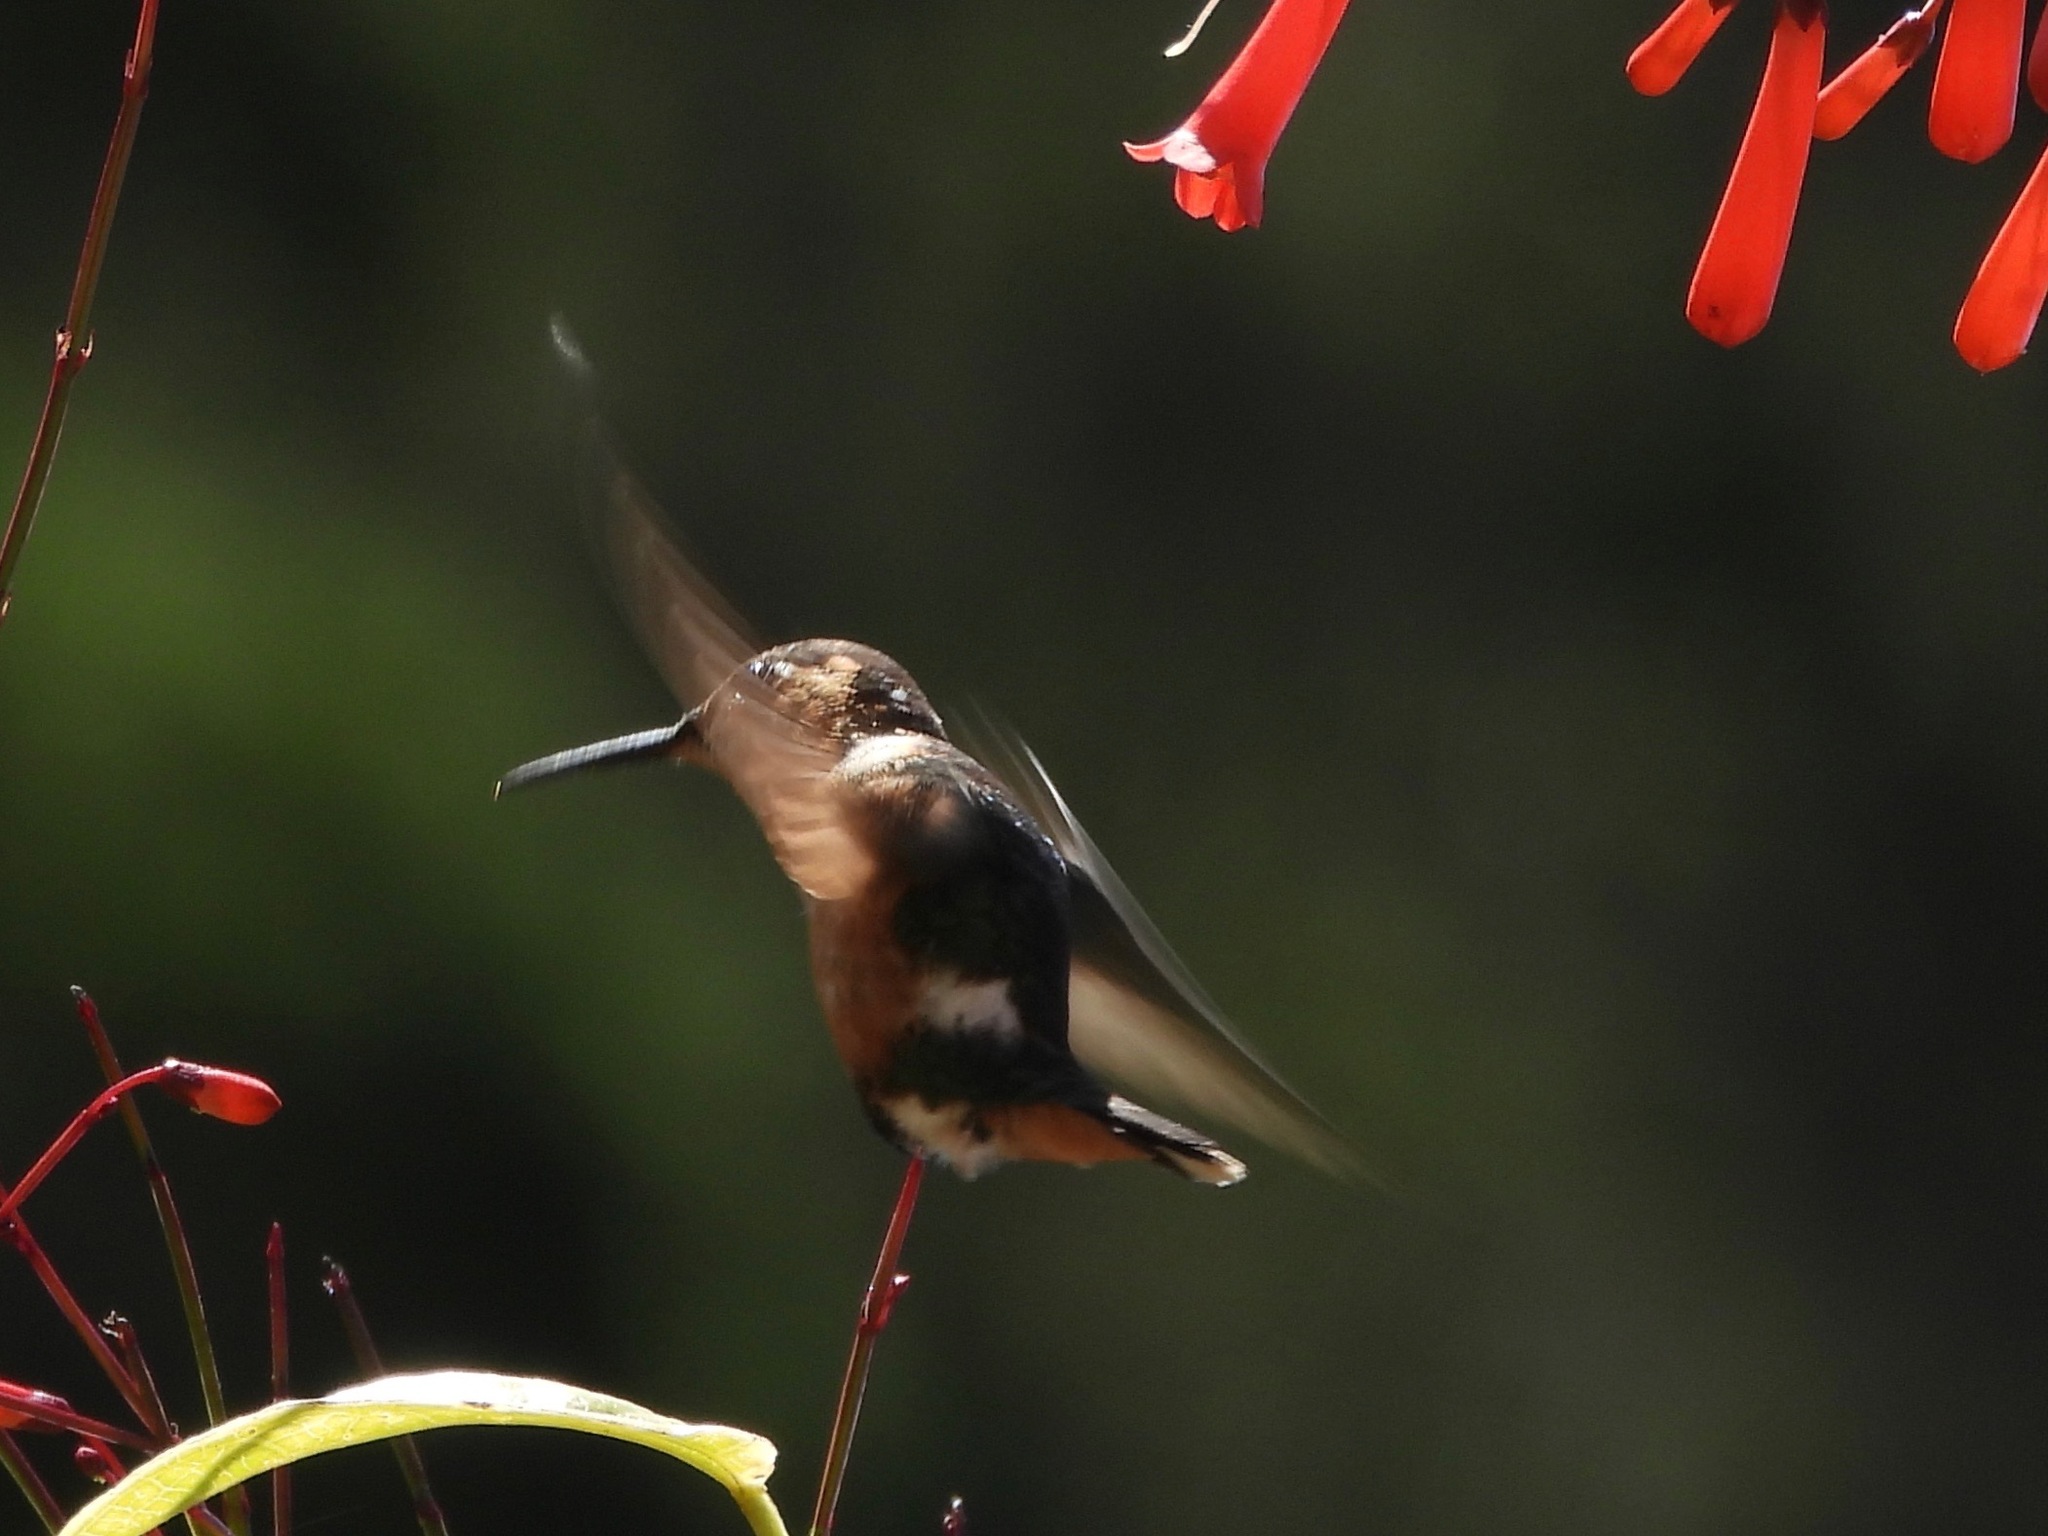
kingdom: Animalia
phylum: Chordata
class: Aves
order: Apodiformes
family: Trochilidae
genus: Tilmatura
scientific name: Tilmatura dupontii
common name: Sparkling-tailed woodstar
